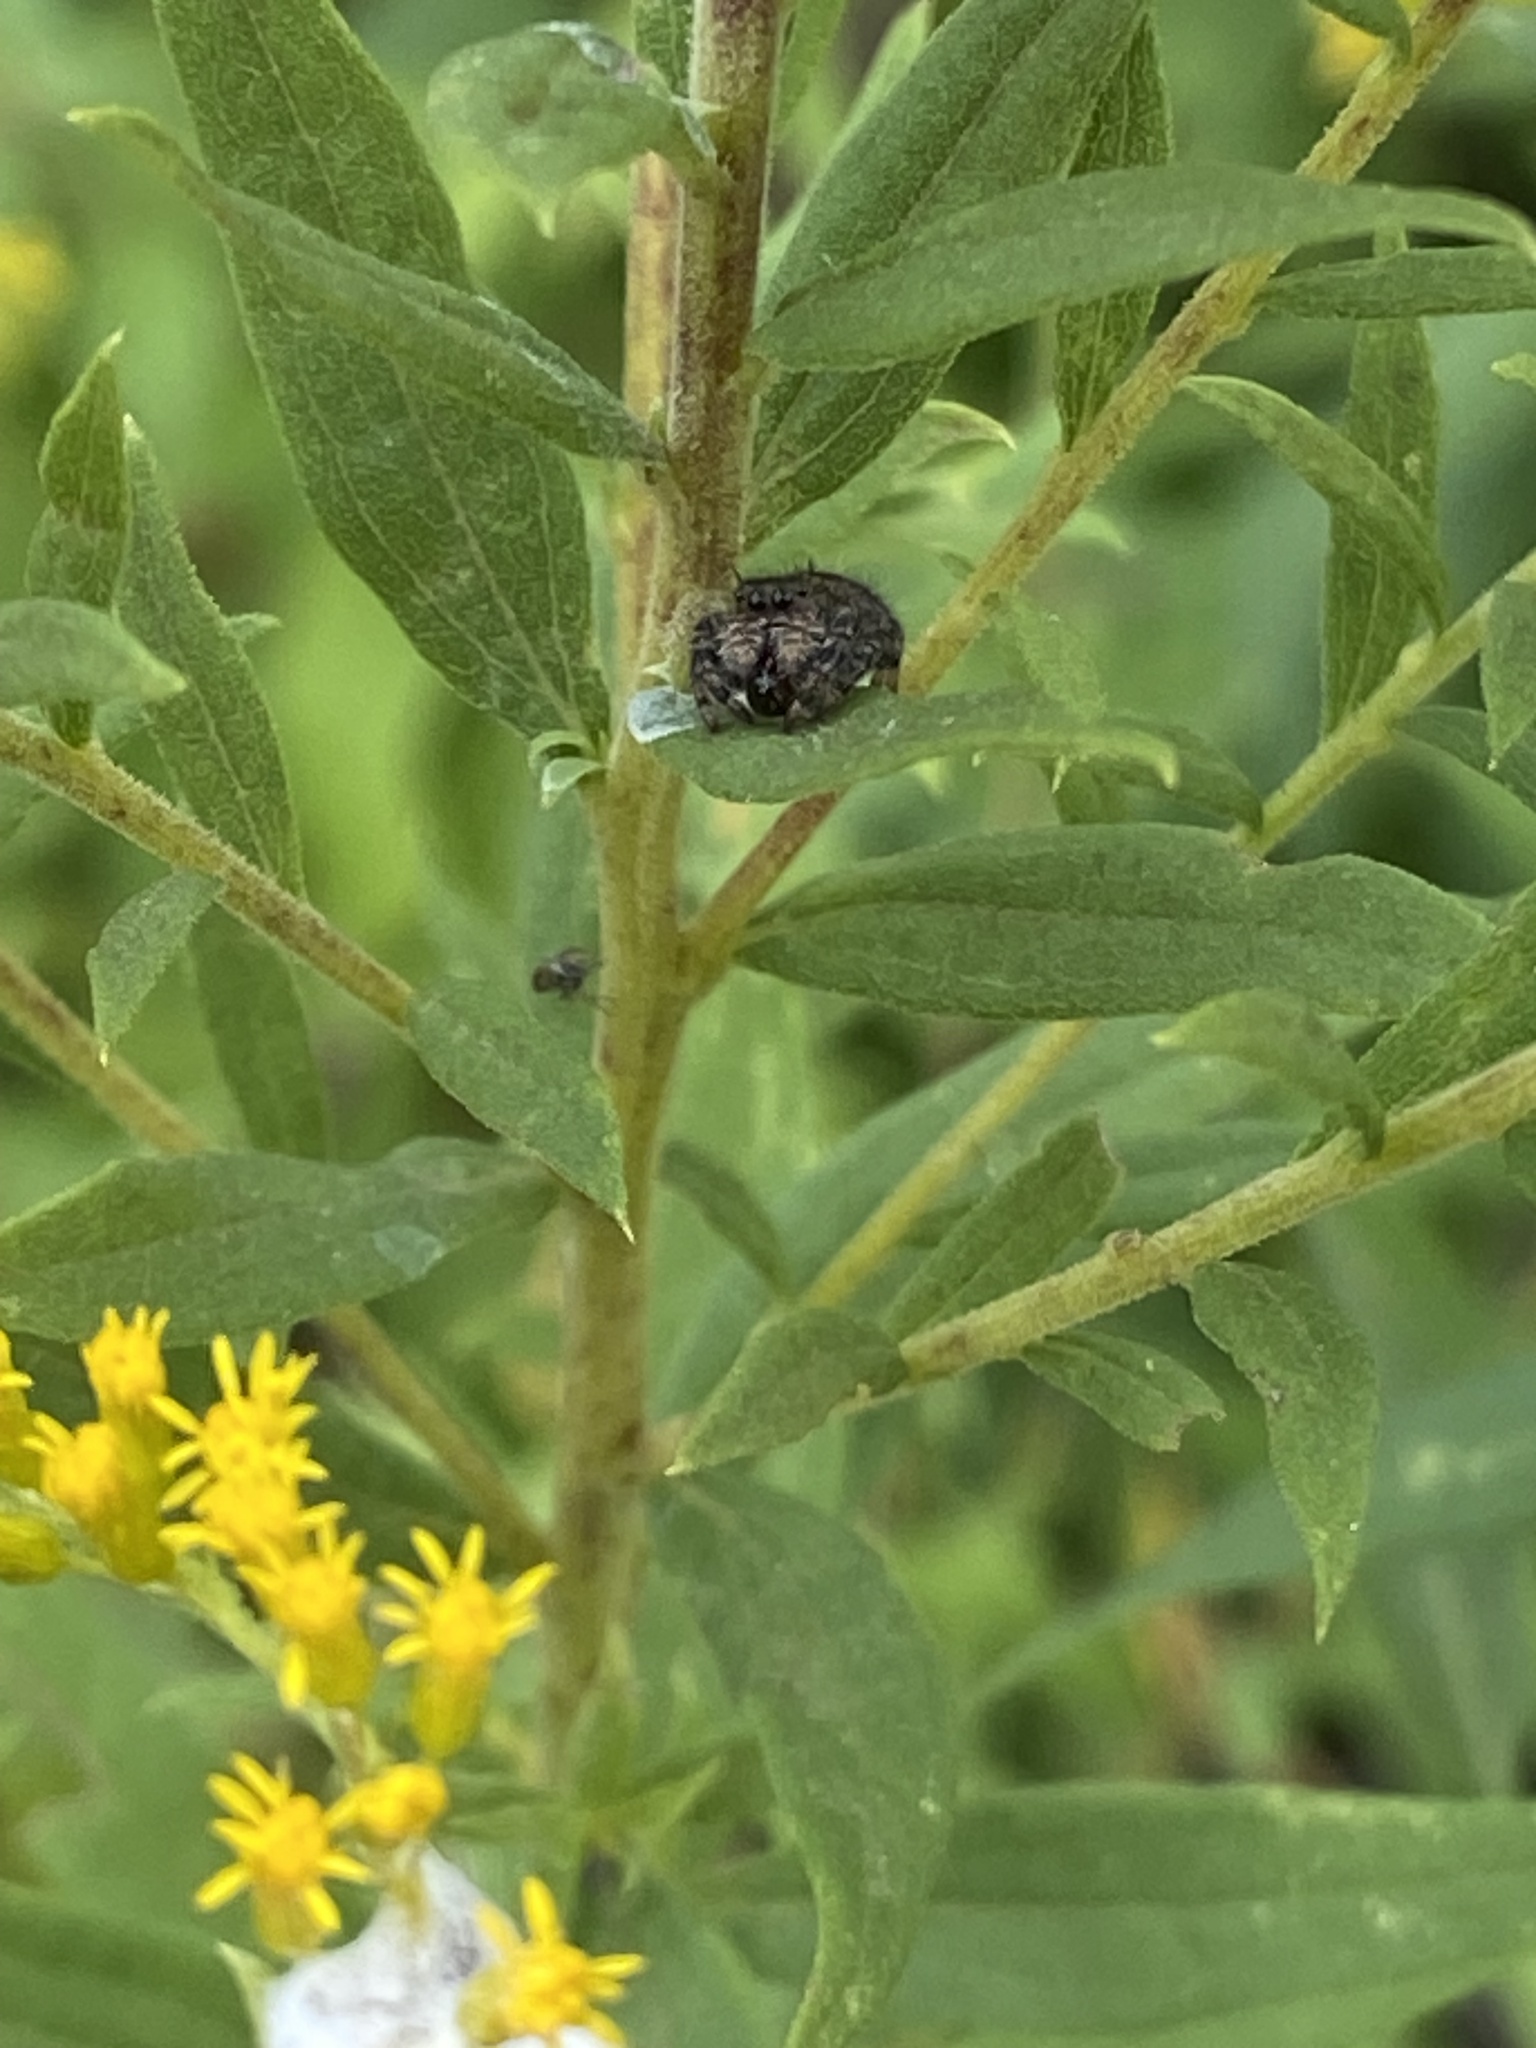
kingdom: Animalia
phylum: Arthropoda
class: Arachnida
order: Araneae
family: Salticidae
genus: Phidippus
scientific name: Phidippus audax
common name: Bold jumper
